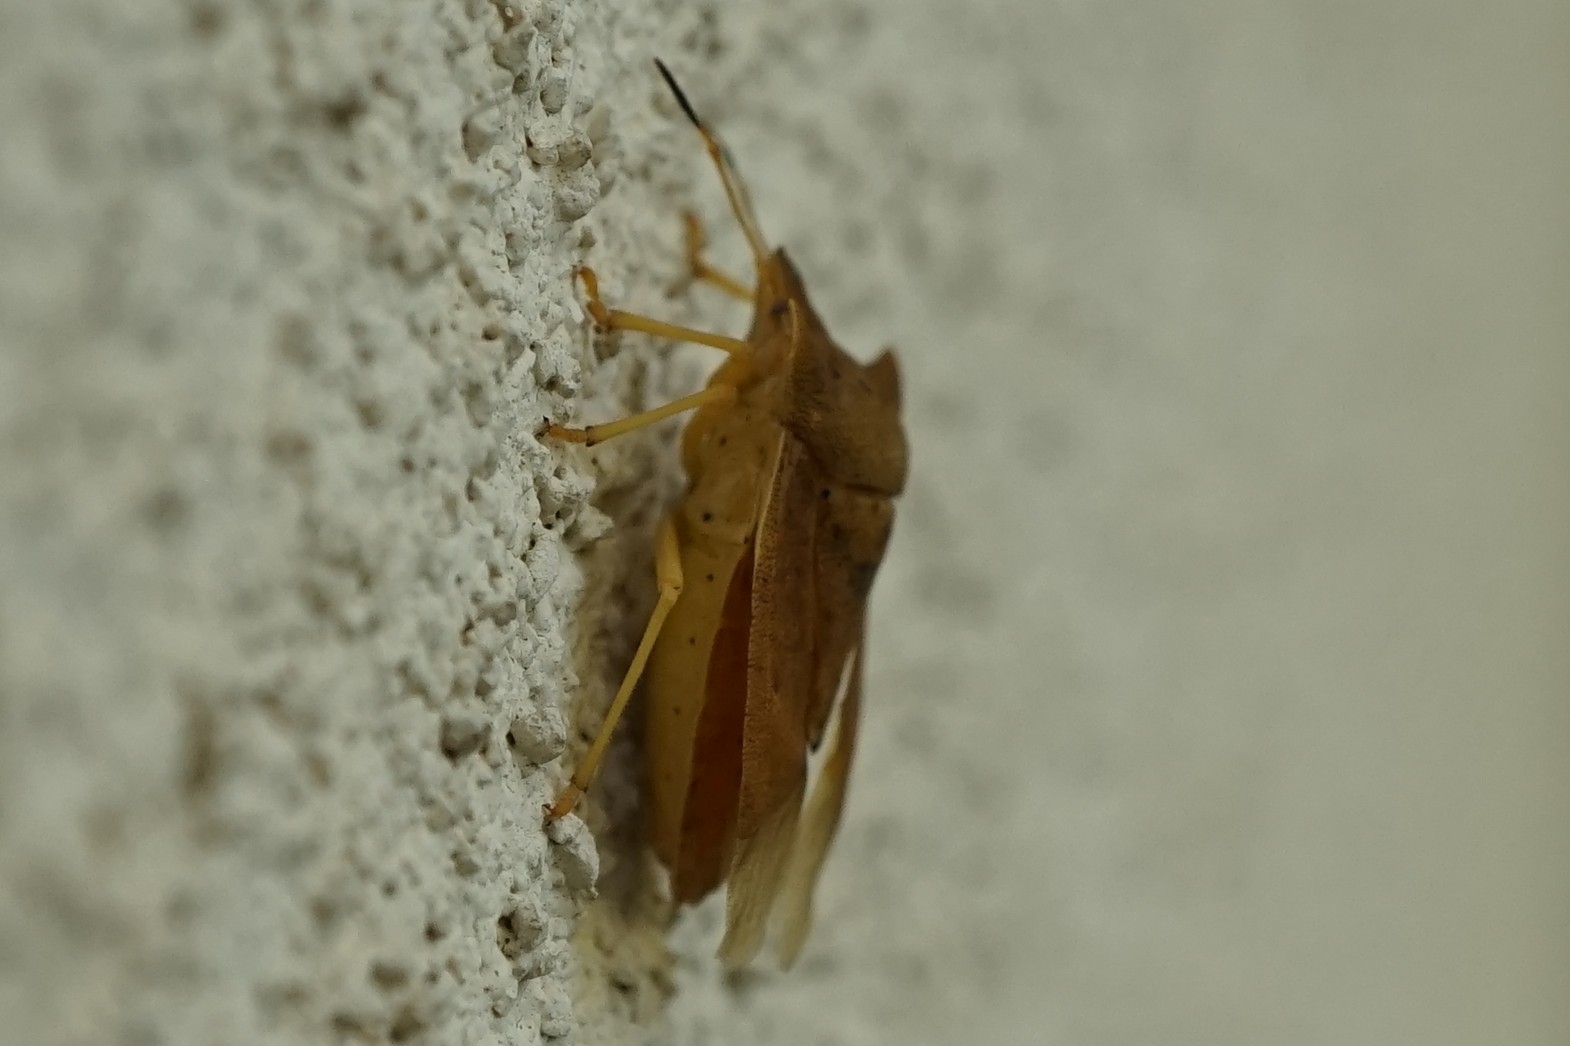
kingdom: Animalia
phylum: Arthropoda
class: Insecta
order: Hemiptera
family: Pentatomidae
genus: Lelia
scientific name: Lelia decempunctata
